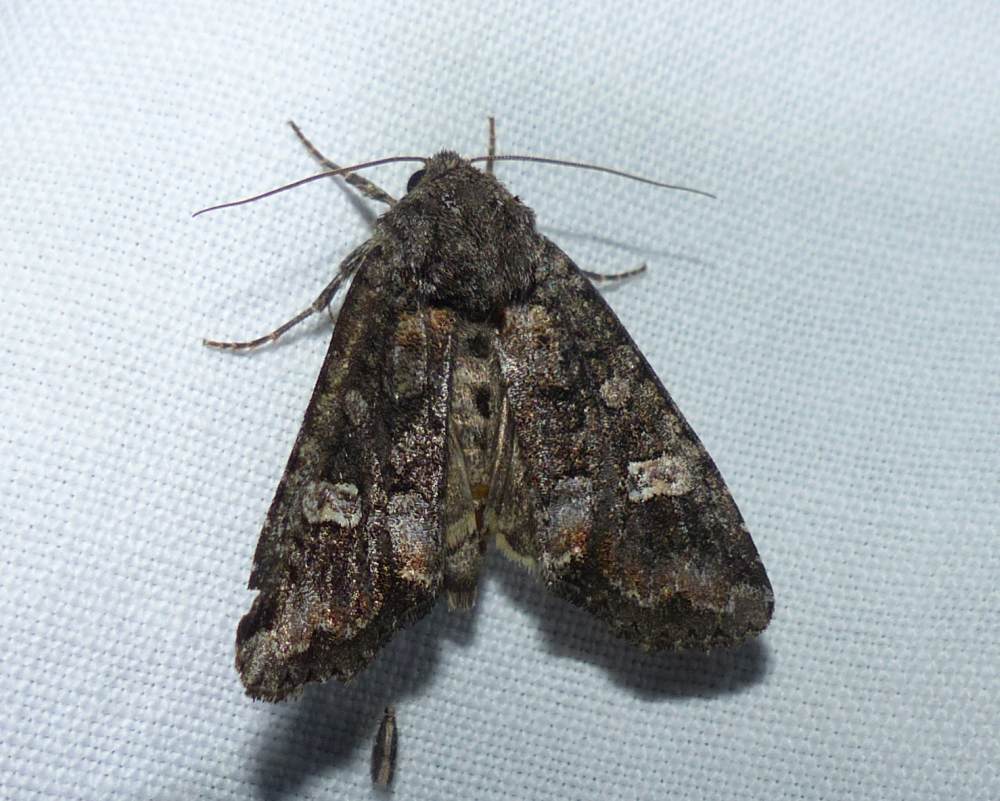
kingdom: Animalia
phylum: Arthropoda
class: Insecta
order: Lepidoptera
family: Noctuidae
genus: Spiramater
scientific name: Spiramater lutra
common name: Otter spiramater moth
